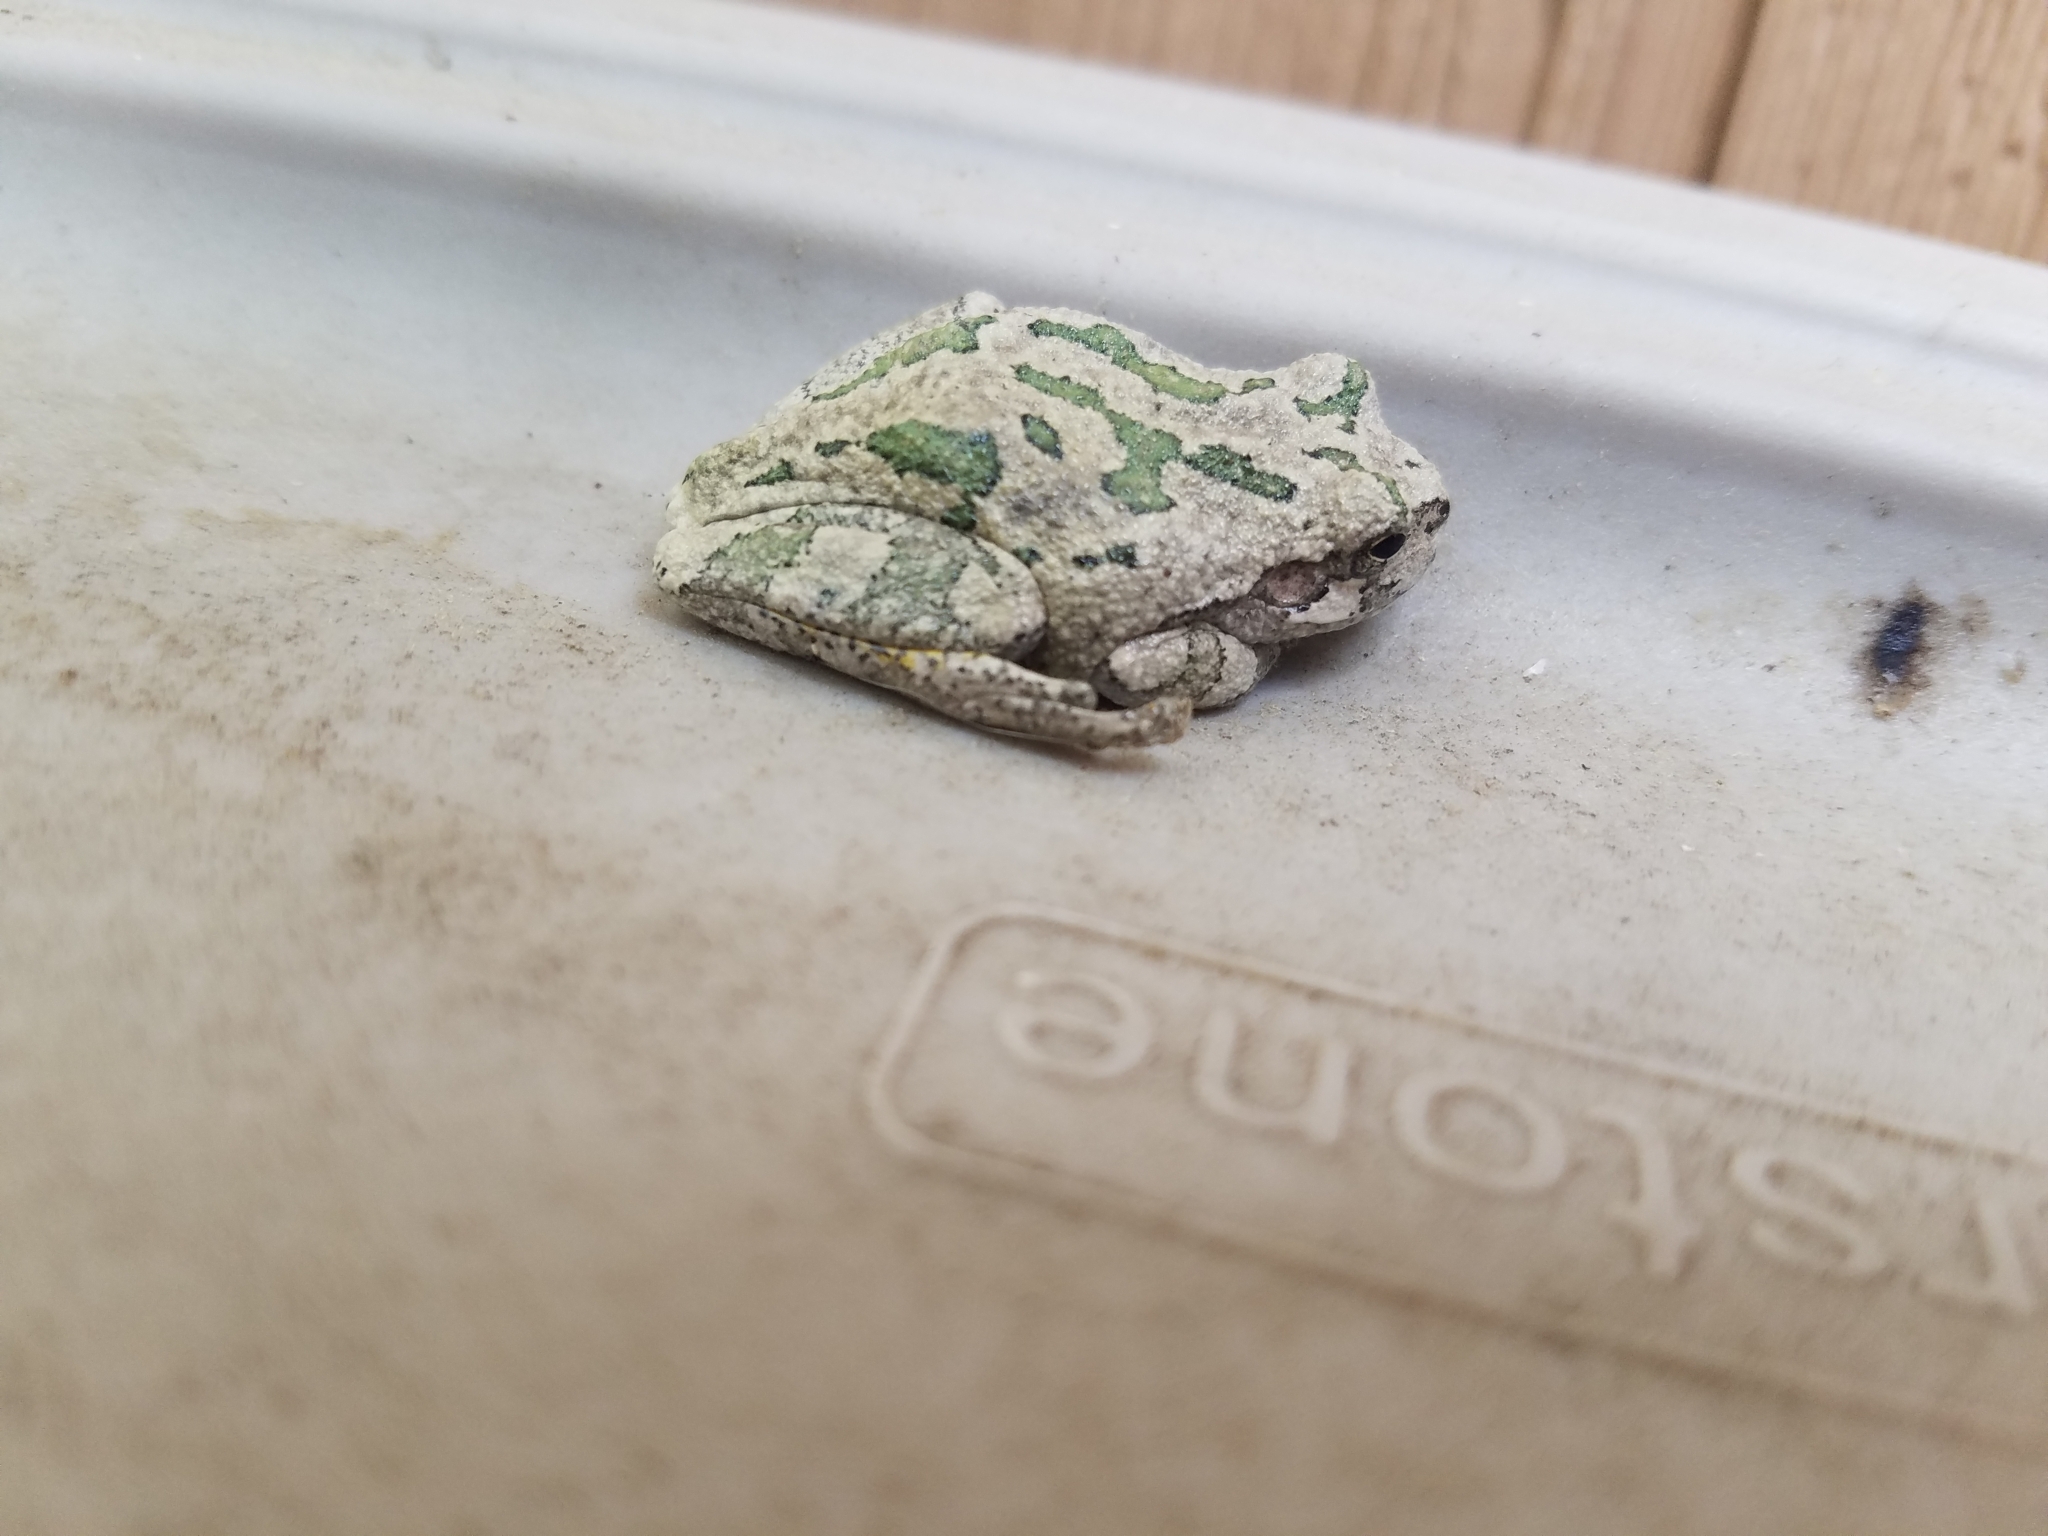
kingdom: Animalia
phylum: Chordata
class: Amphibia
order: Anura
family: Hylidae
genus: Hyla
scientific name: Hyla
